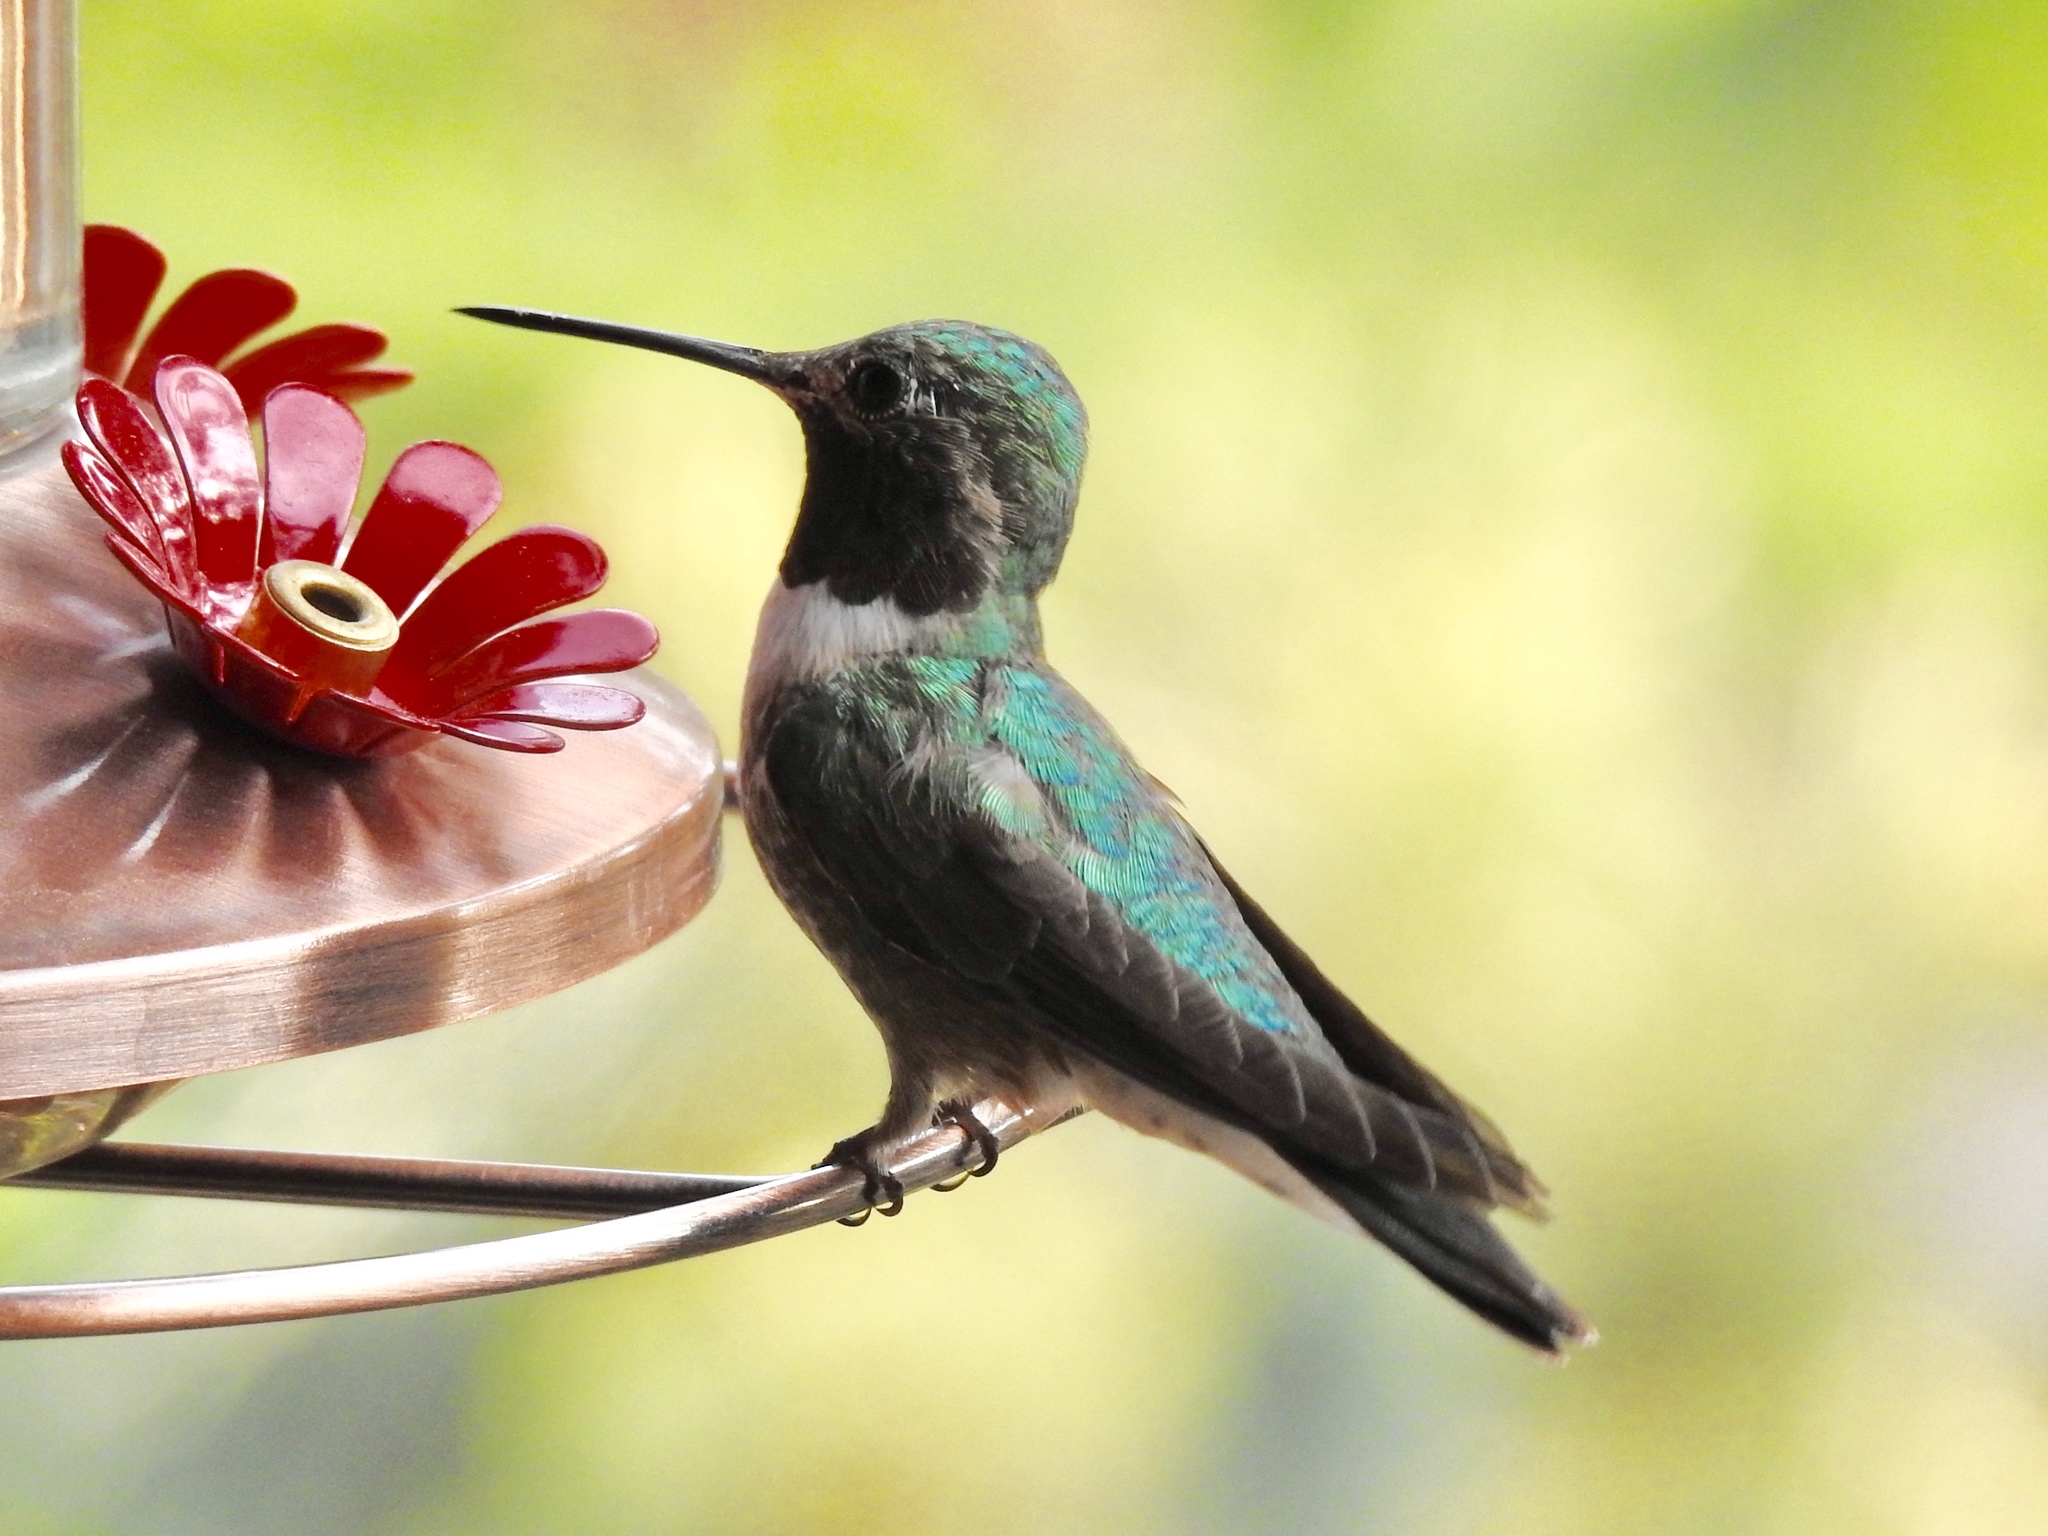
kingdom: Animalia
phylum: Chordata
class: Aves
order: Apodiformes
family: Trochilidae
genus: Selasphorus
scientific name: Selasphorus platycercus
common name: Broad-tailed hummingbird
